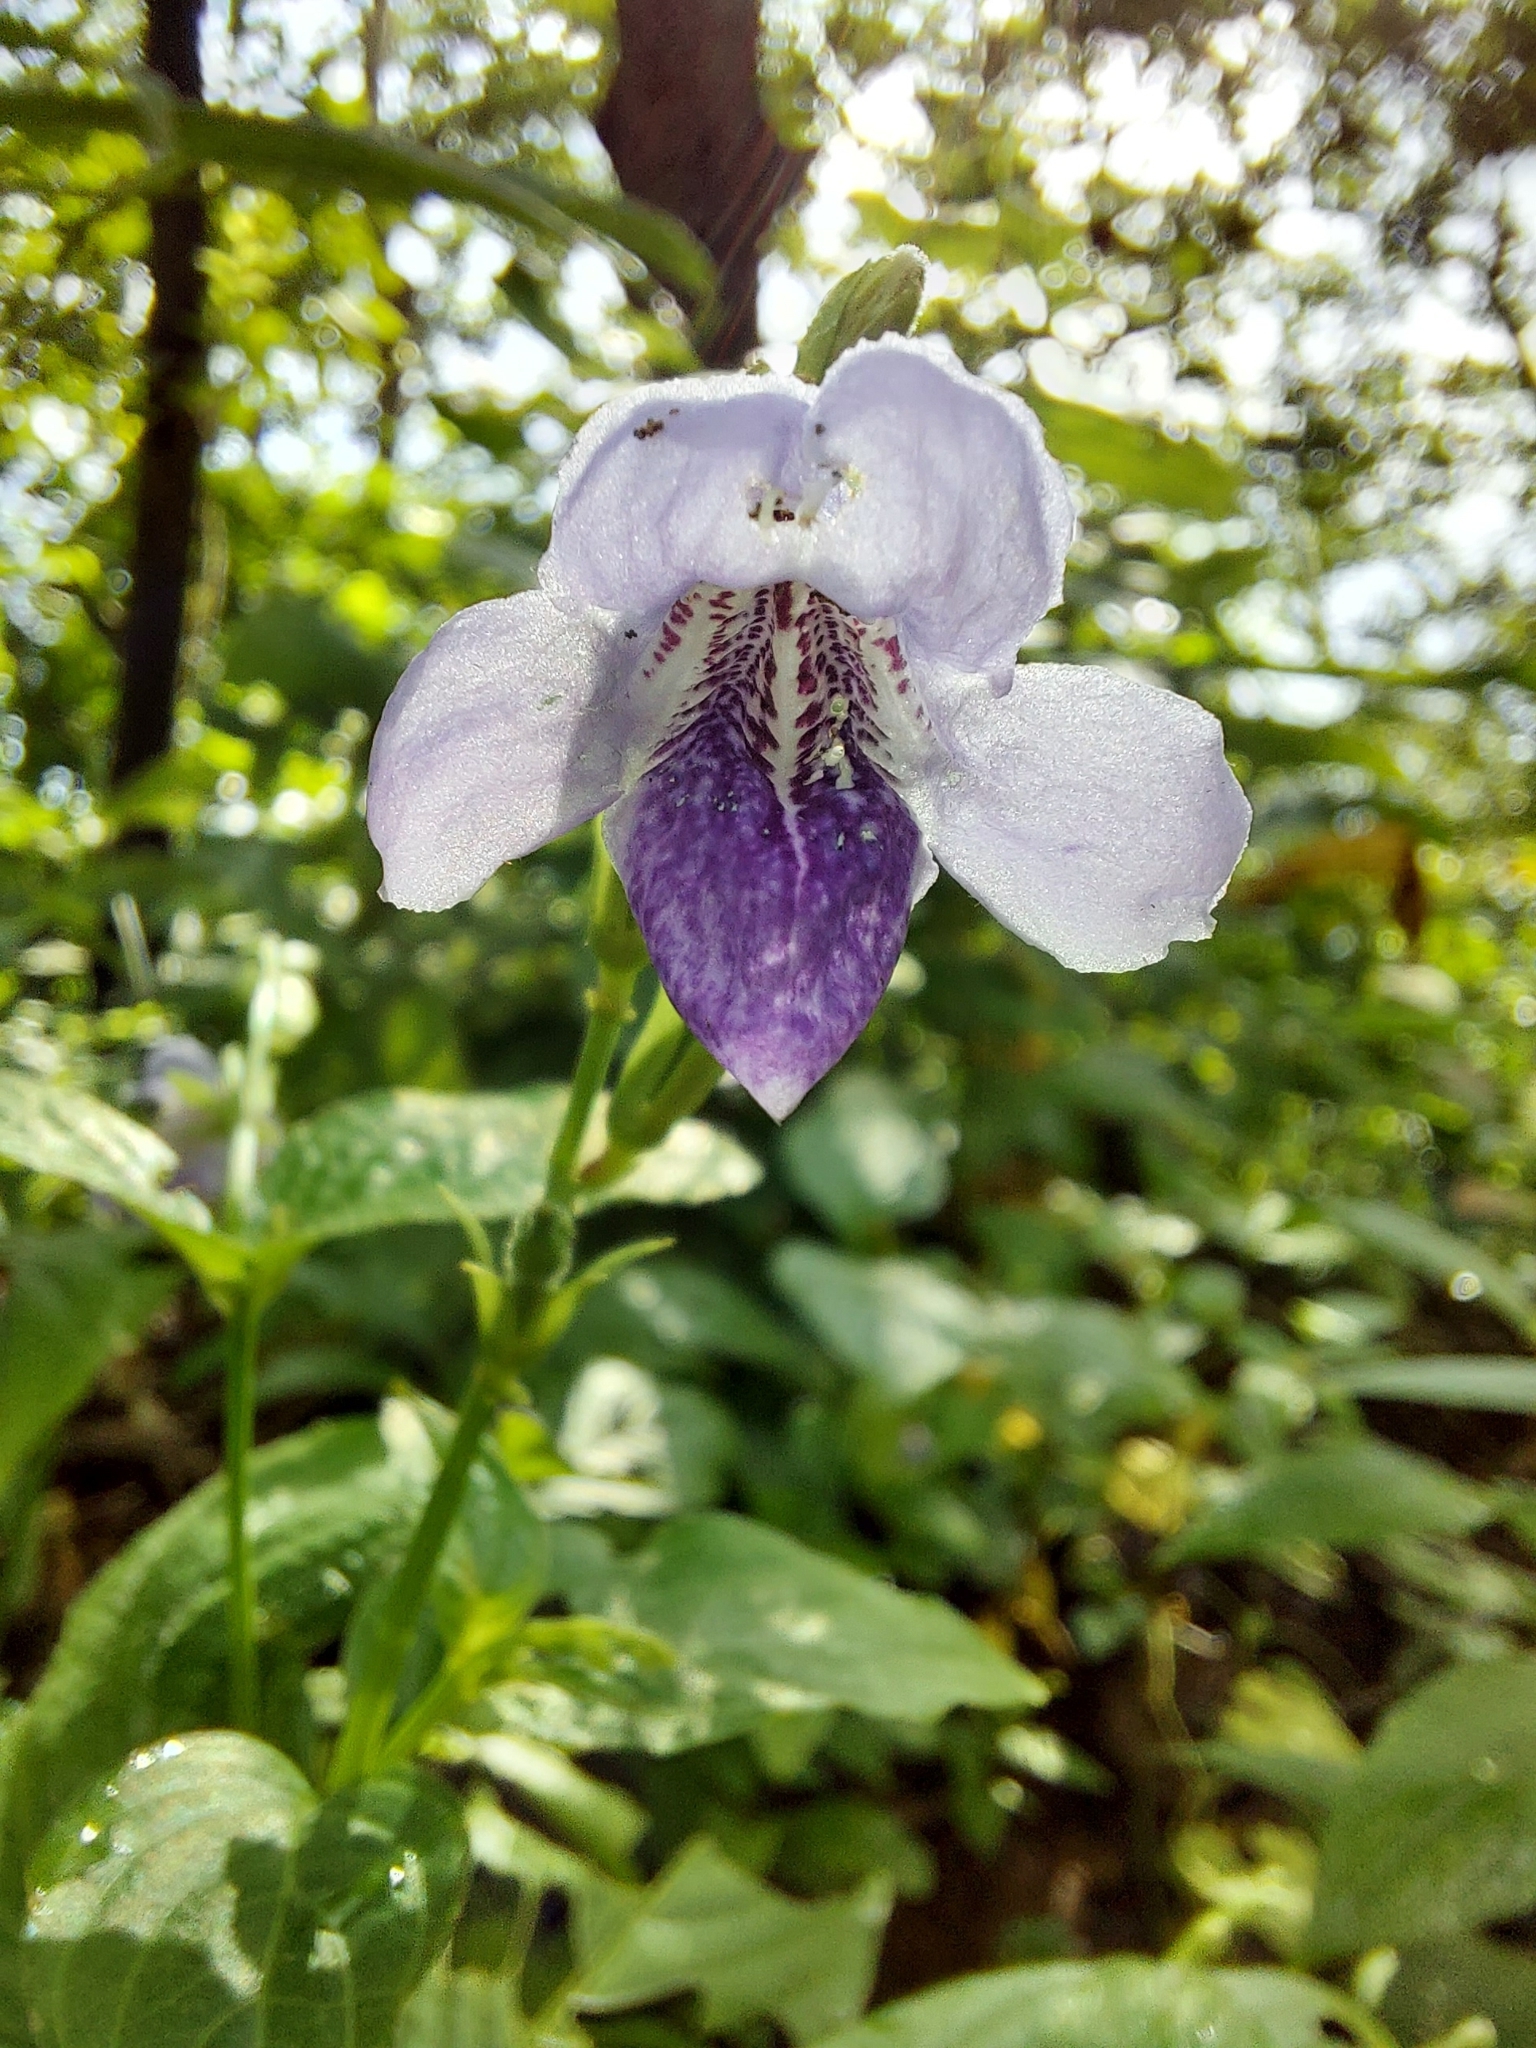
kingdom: Plantae
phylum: Tracheophyta
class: Magnoliopsida
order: Lamiales
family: Acanthaceae
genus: Asystasia
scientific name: Asystasia dalzelliana
